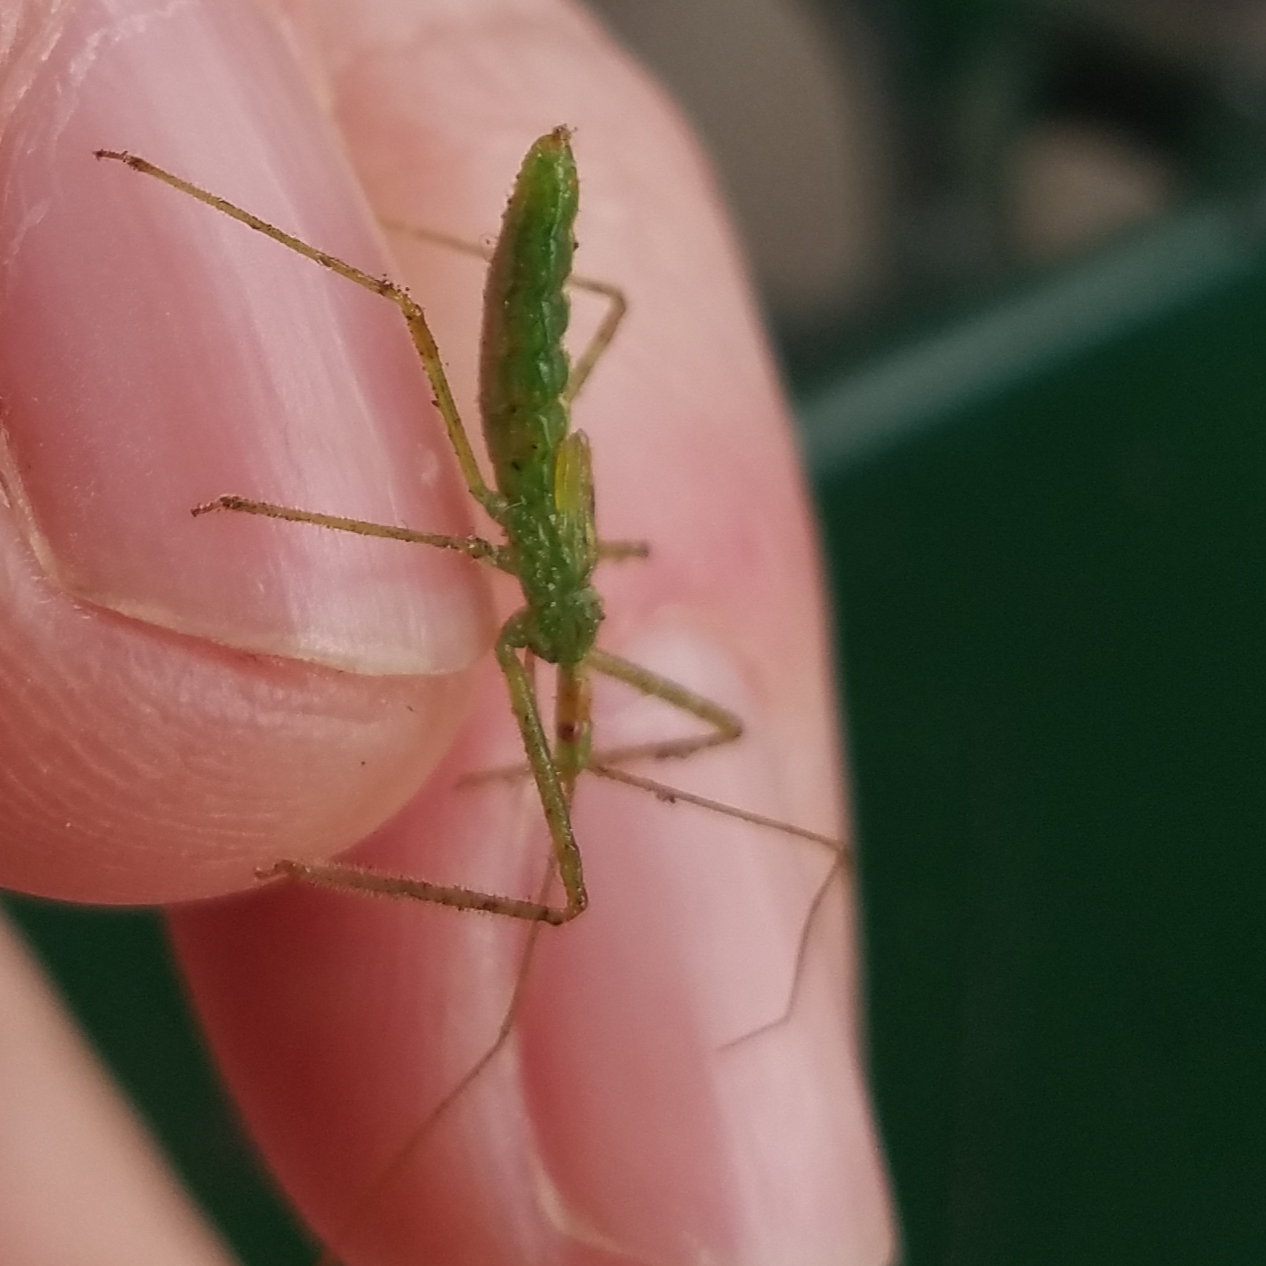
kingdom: Animalia
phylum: Arthropoda
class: Insecta
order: Hemiptera
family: Reduviidae
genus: Zelus
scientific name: Zelus luridus
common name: Pale green assassin bug
